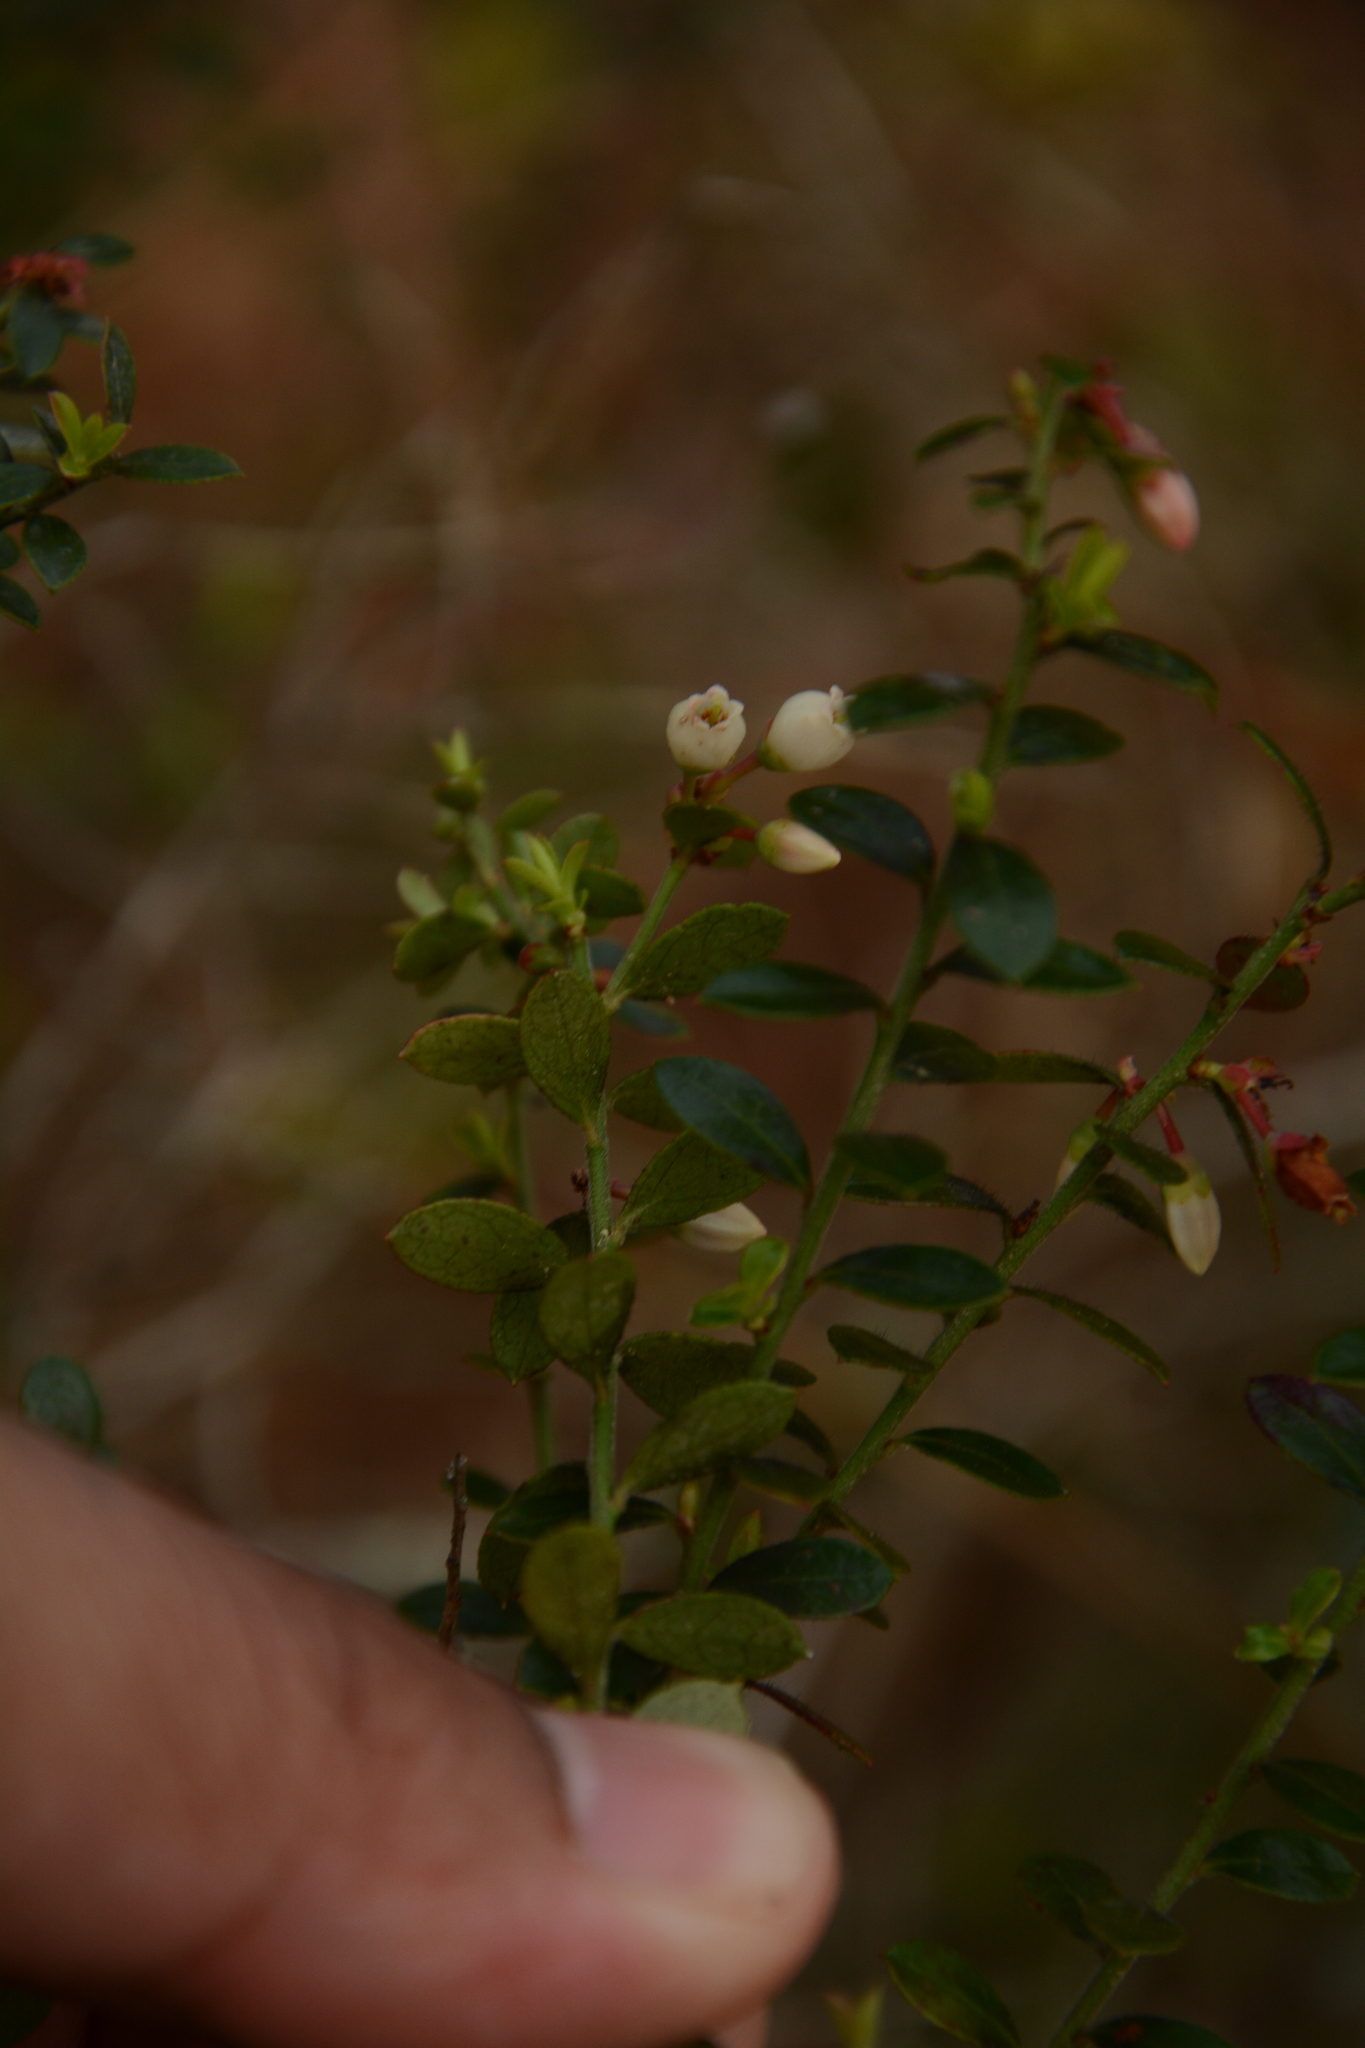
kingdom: Plantae
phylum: Tracheophyta
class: Magnoliopsida
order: Ericales
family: Ericaceae
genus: Vaccinium
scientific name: Vaccinium myrsinites
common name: Evergreen blueberry
